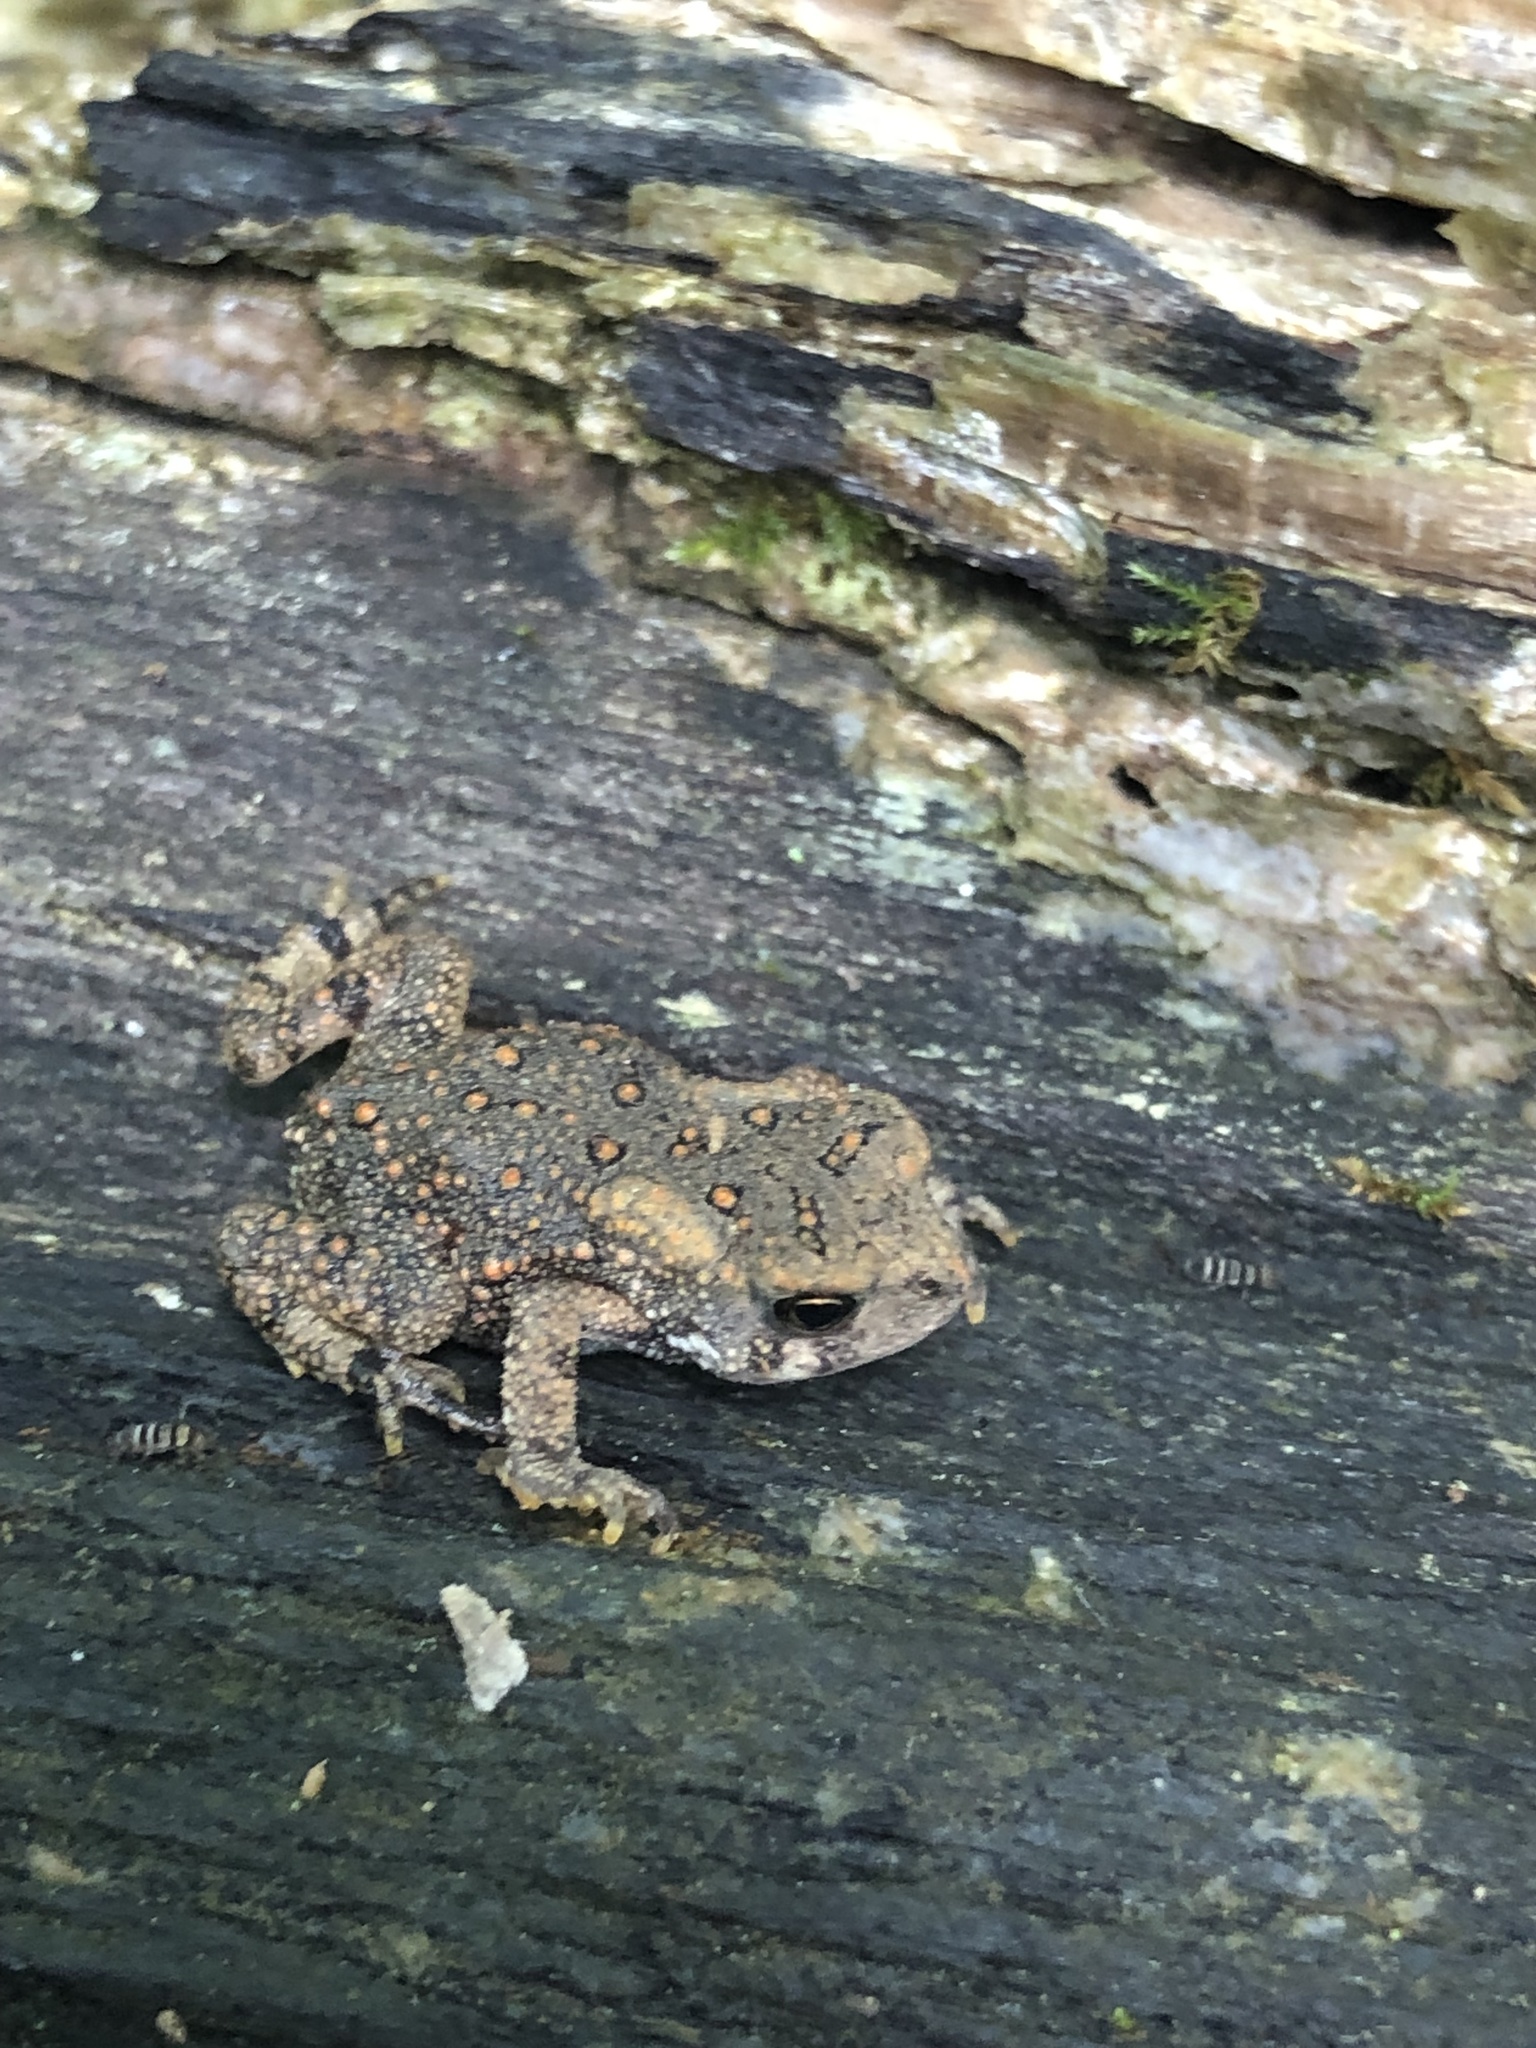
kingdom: Animalia
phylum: Chordata
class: Amphibia
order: Anura
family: Bufonidae
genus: Anaxyrus
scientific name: Anaxyrus americanus
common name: American toad
